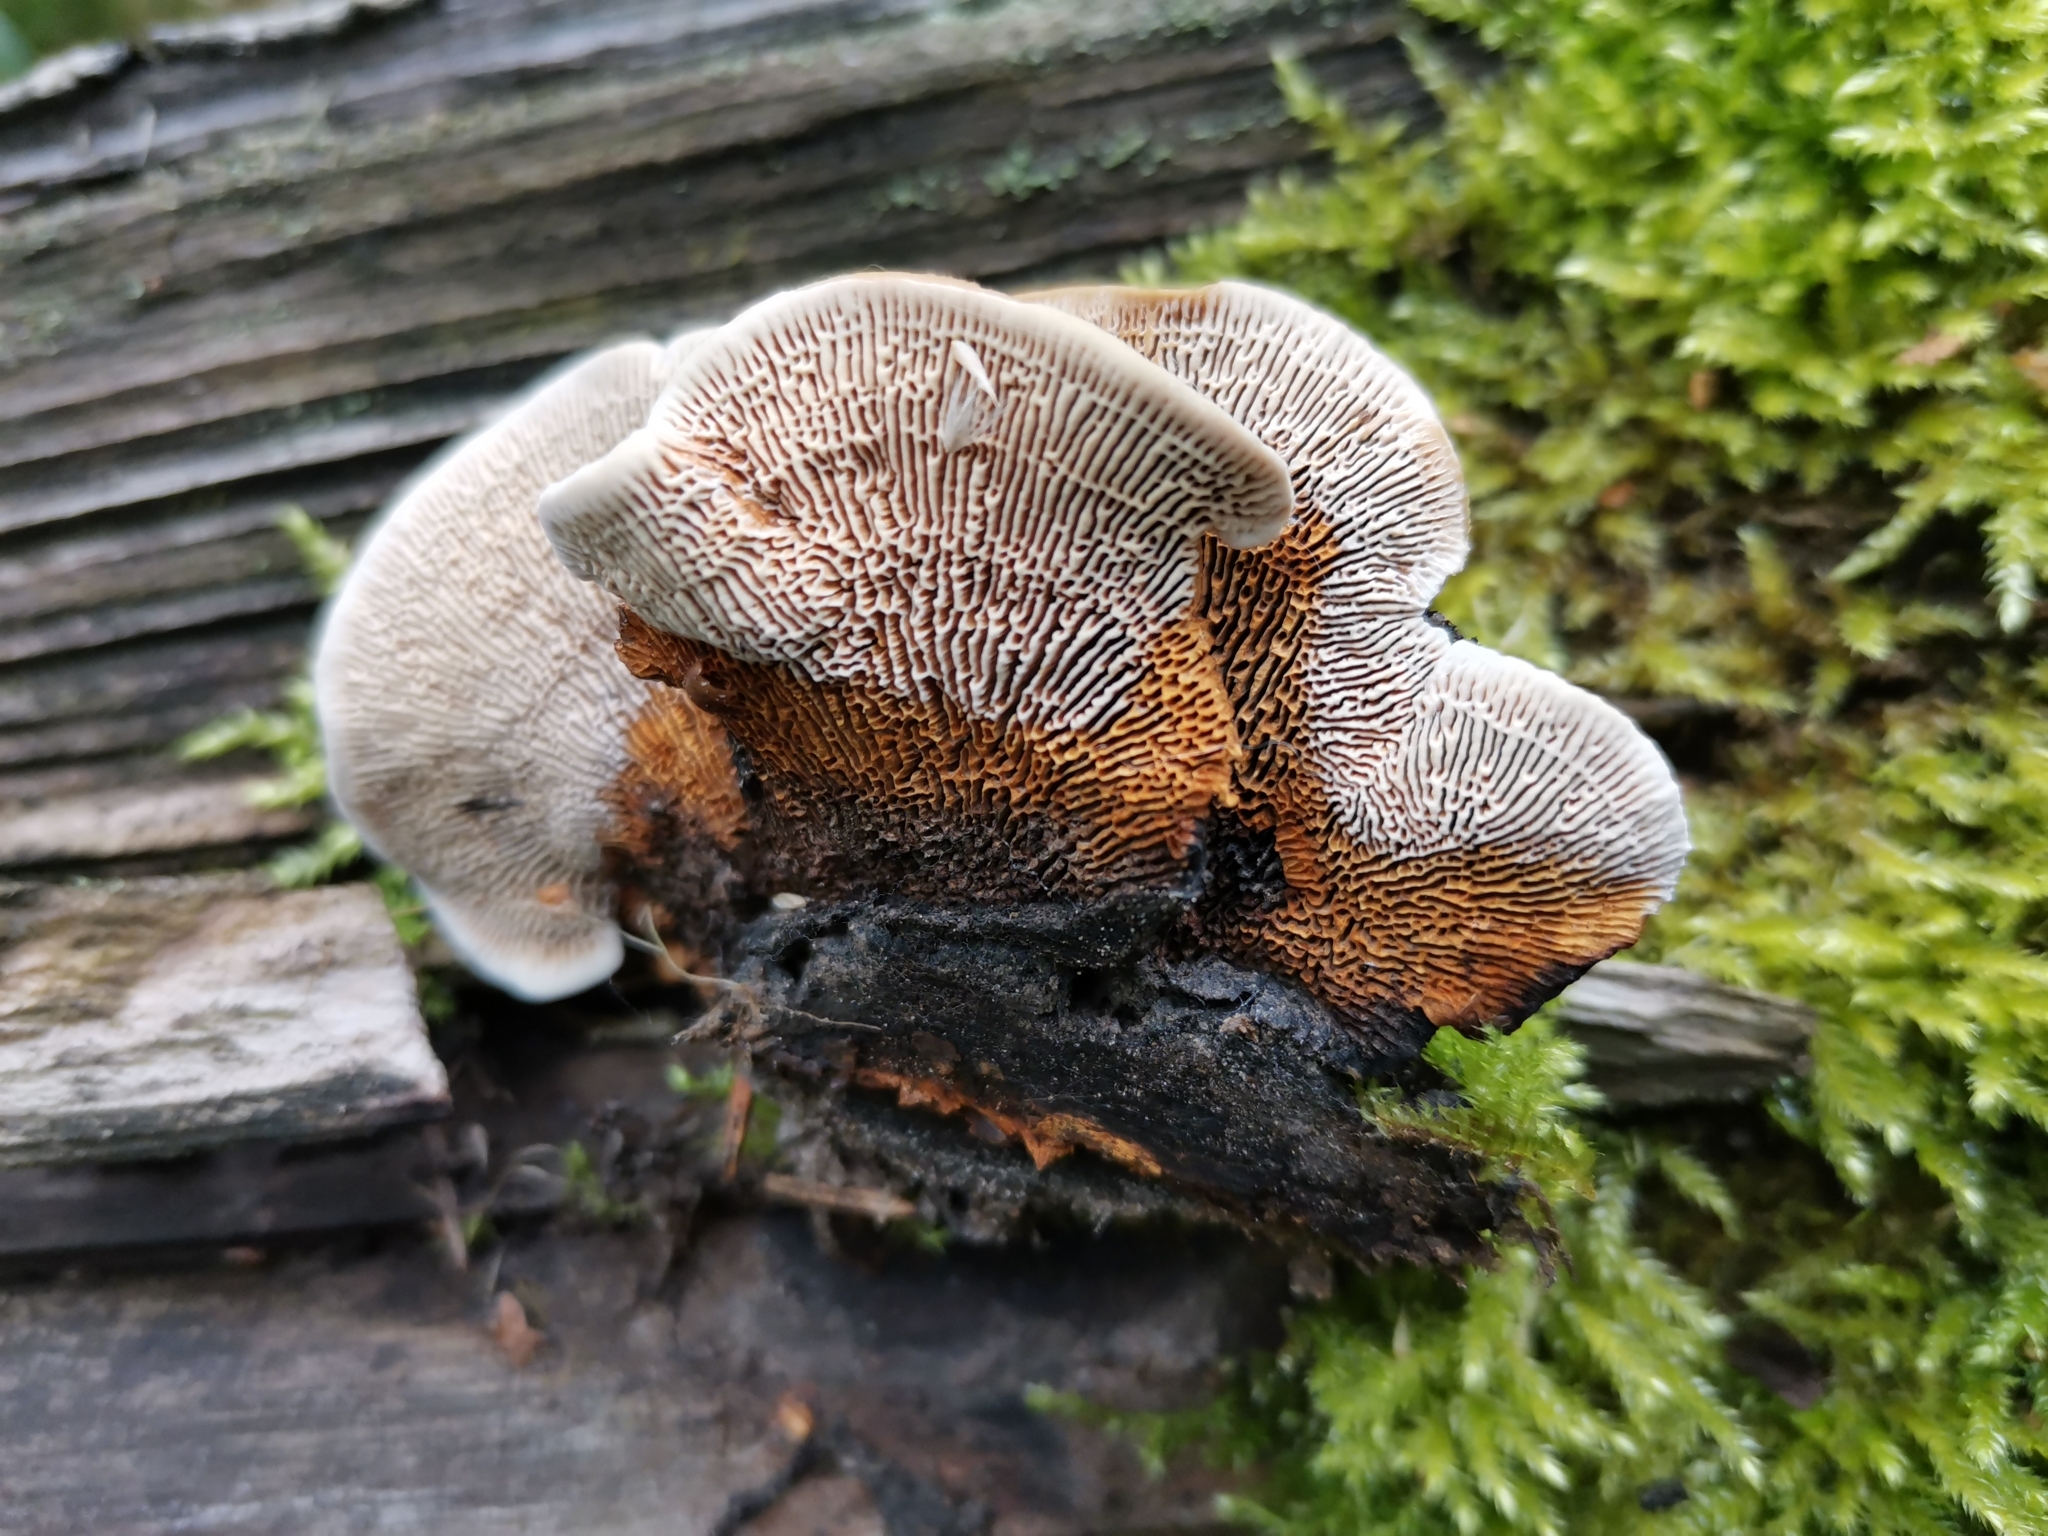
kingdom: Fungi
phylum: Basidiomycota
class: Agaricomycetes
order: Gloeophyllales
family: Gloeophyllaceae
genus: Gloeophyllum
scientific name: Gloeophyllum sepiarium
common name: Conifer mazegill
